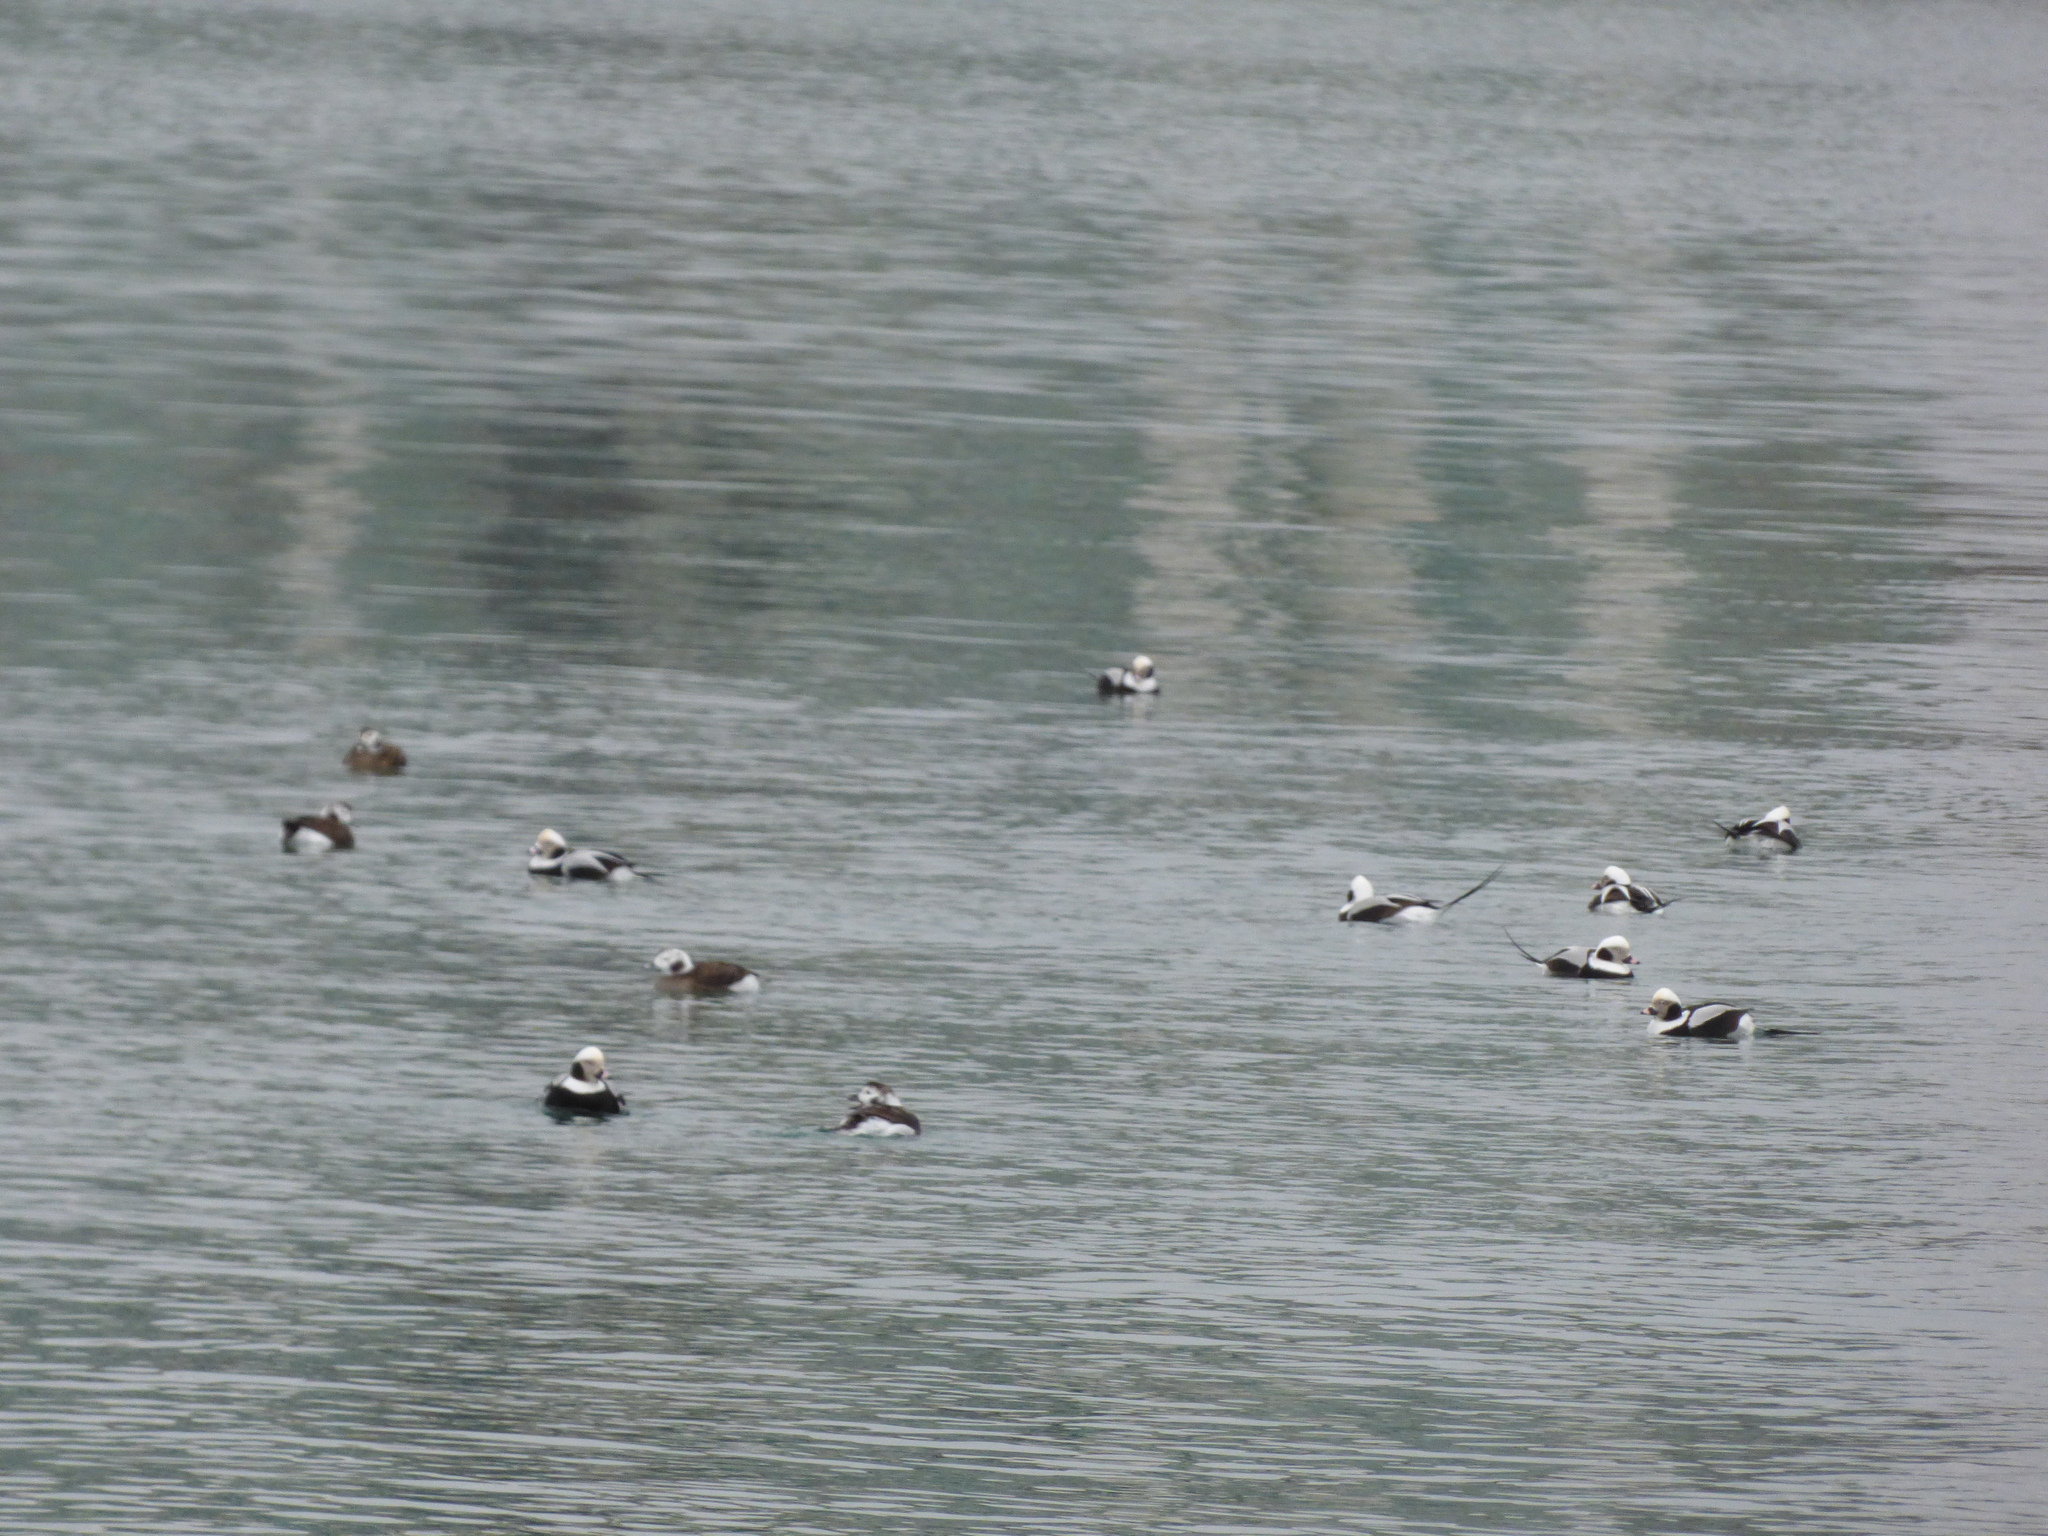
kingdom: Animalia
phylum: Chordata
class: Aves
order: Anseriformes
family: Anatidae
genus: Clangula
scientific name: Clangula hyemalis
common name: Long-tailed duck
